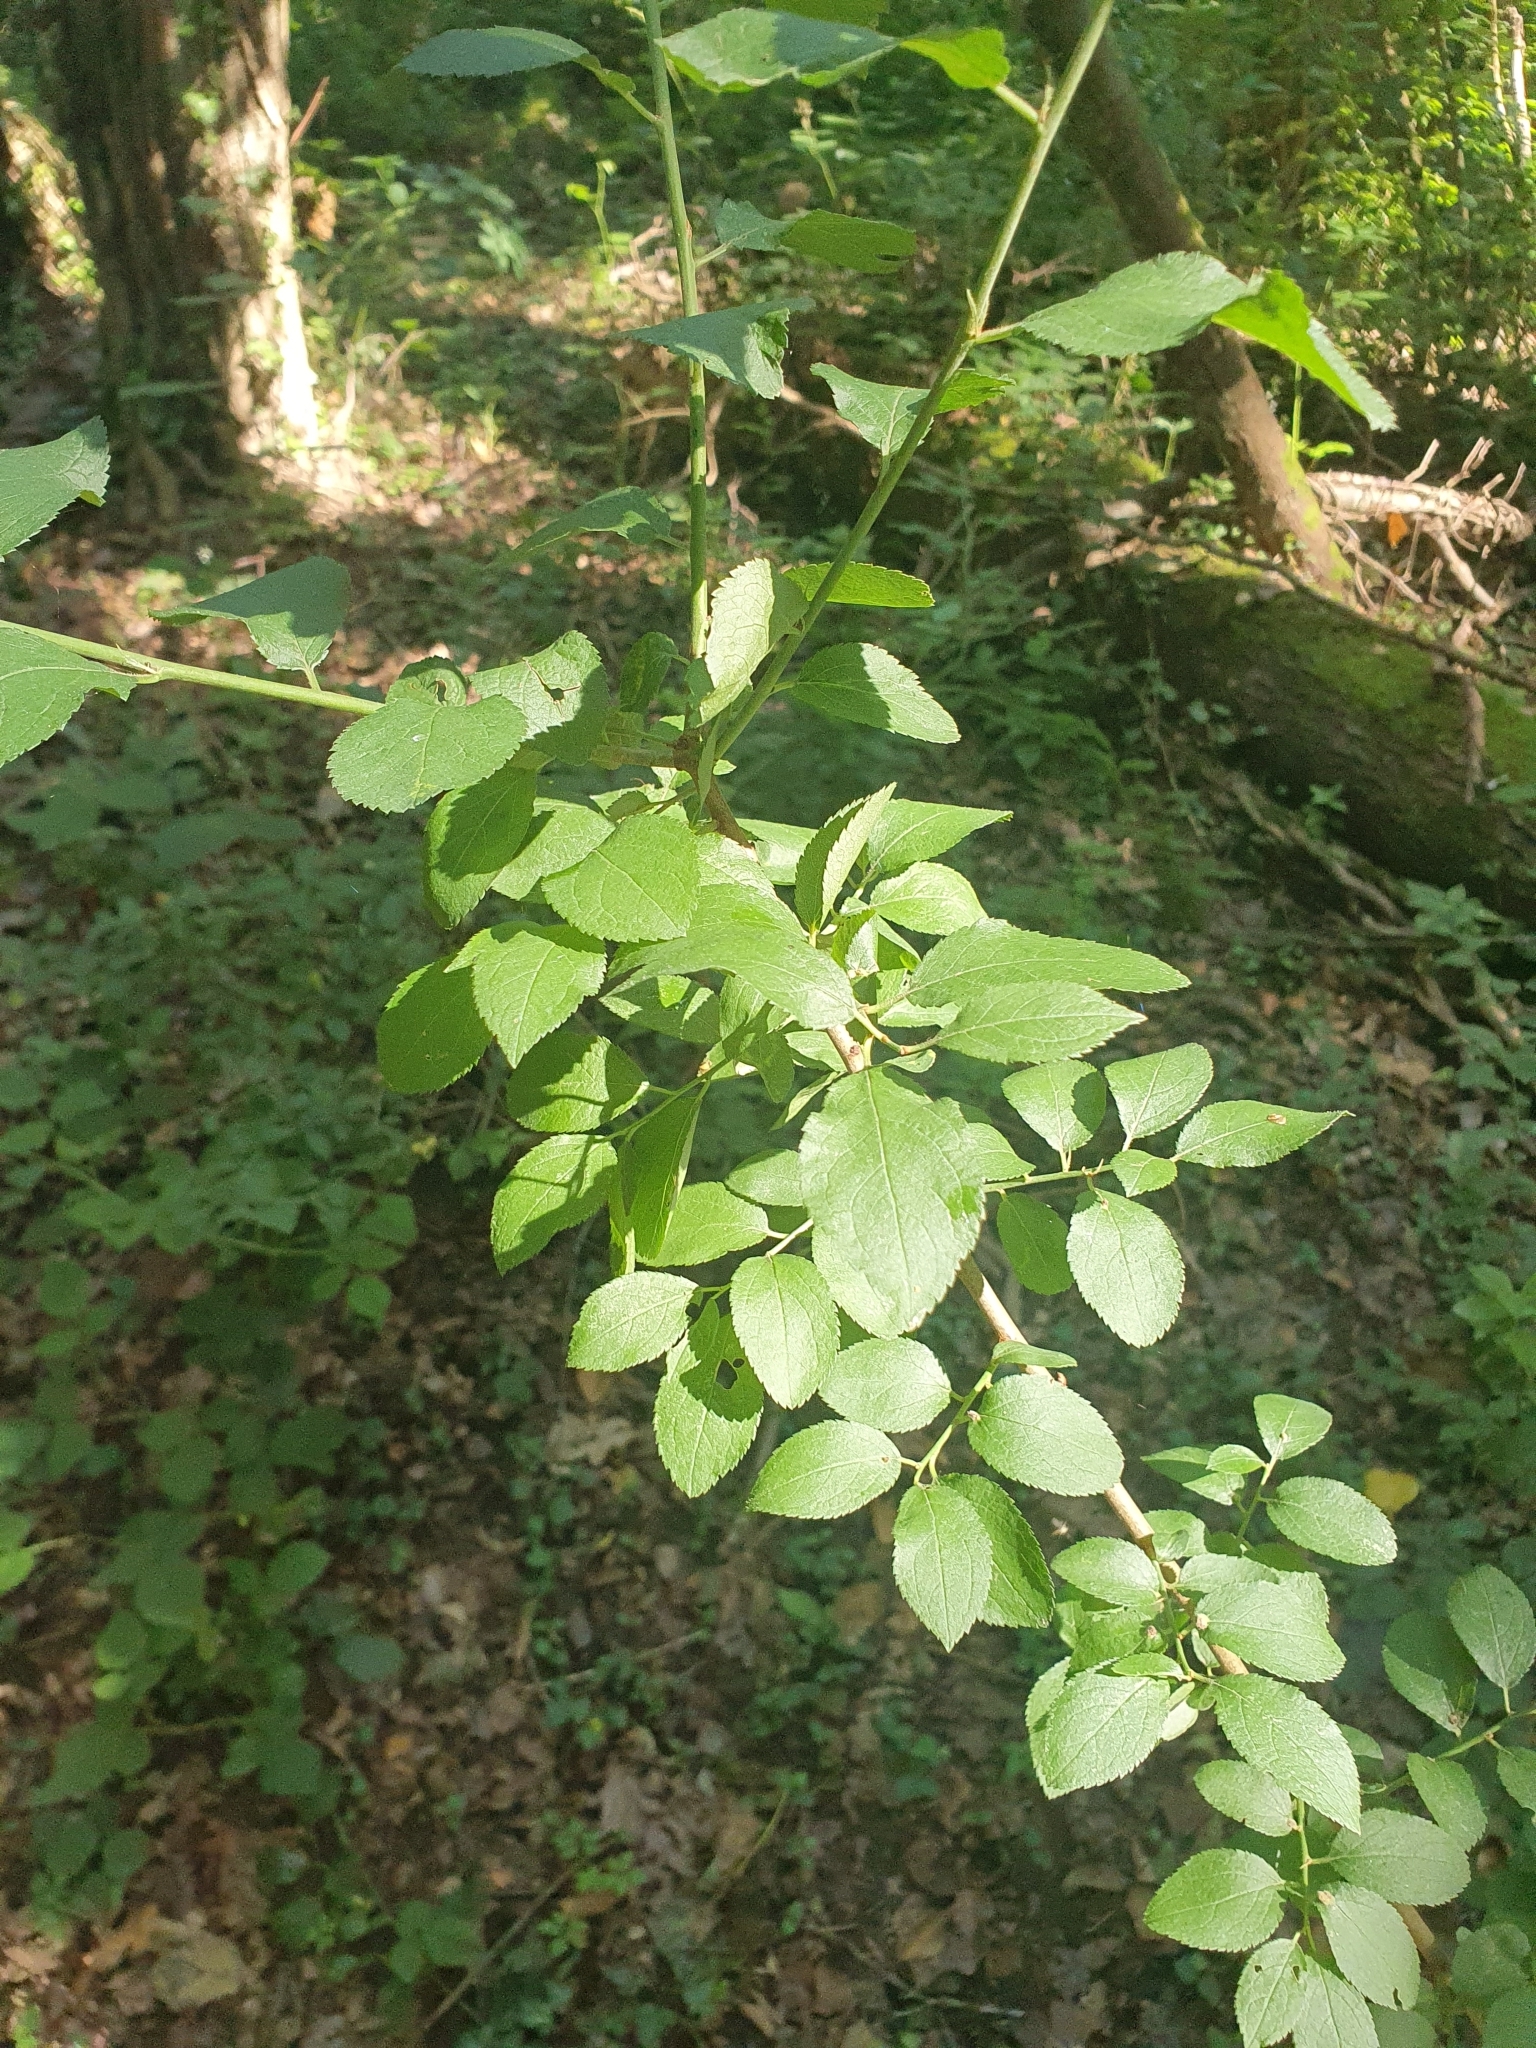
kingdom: Plantae
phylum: Tracheophyta
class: Magnoliopsida
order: Rosales
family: Rosaceae
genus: Prunus
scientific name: Prunus spinosa
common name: Blackthorn
